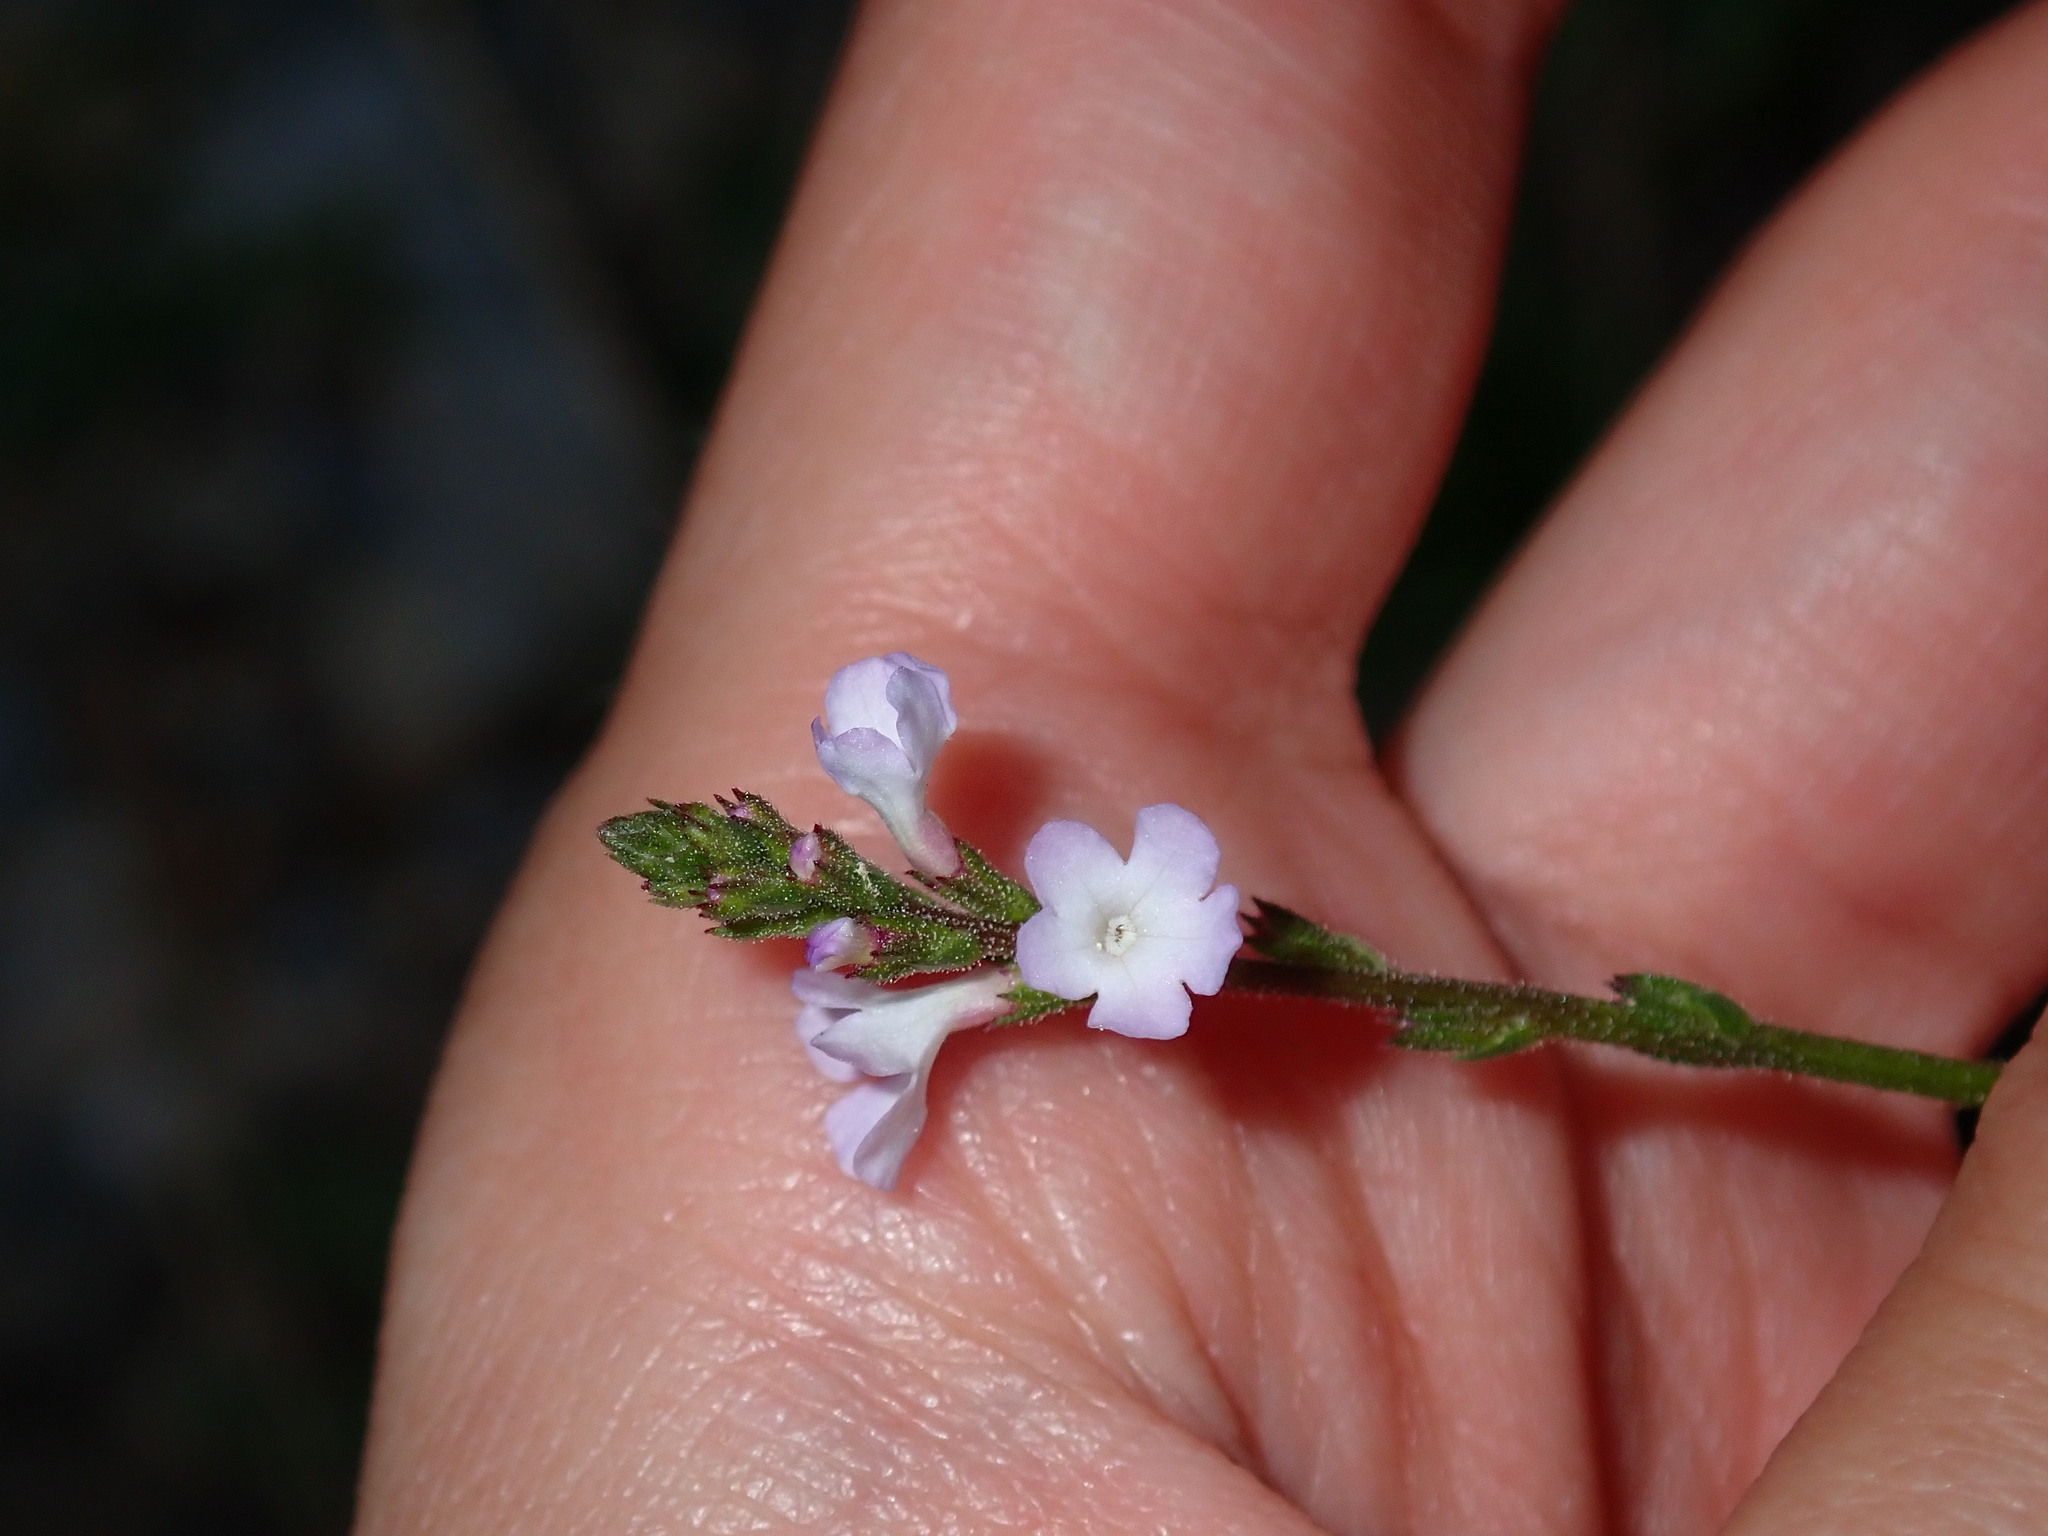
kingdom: Plantae
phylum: Tracheophyta
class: Magnoliopsida
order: Lamiales
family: Verbenaceae
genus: Verbena
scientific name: Verbena officinalis
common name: Vervain
